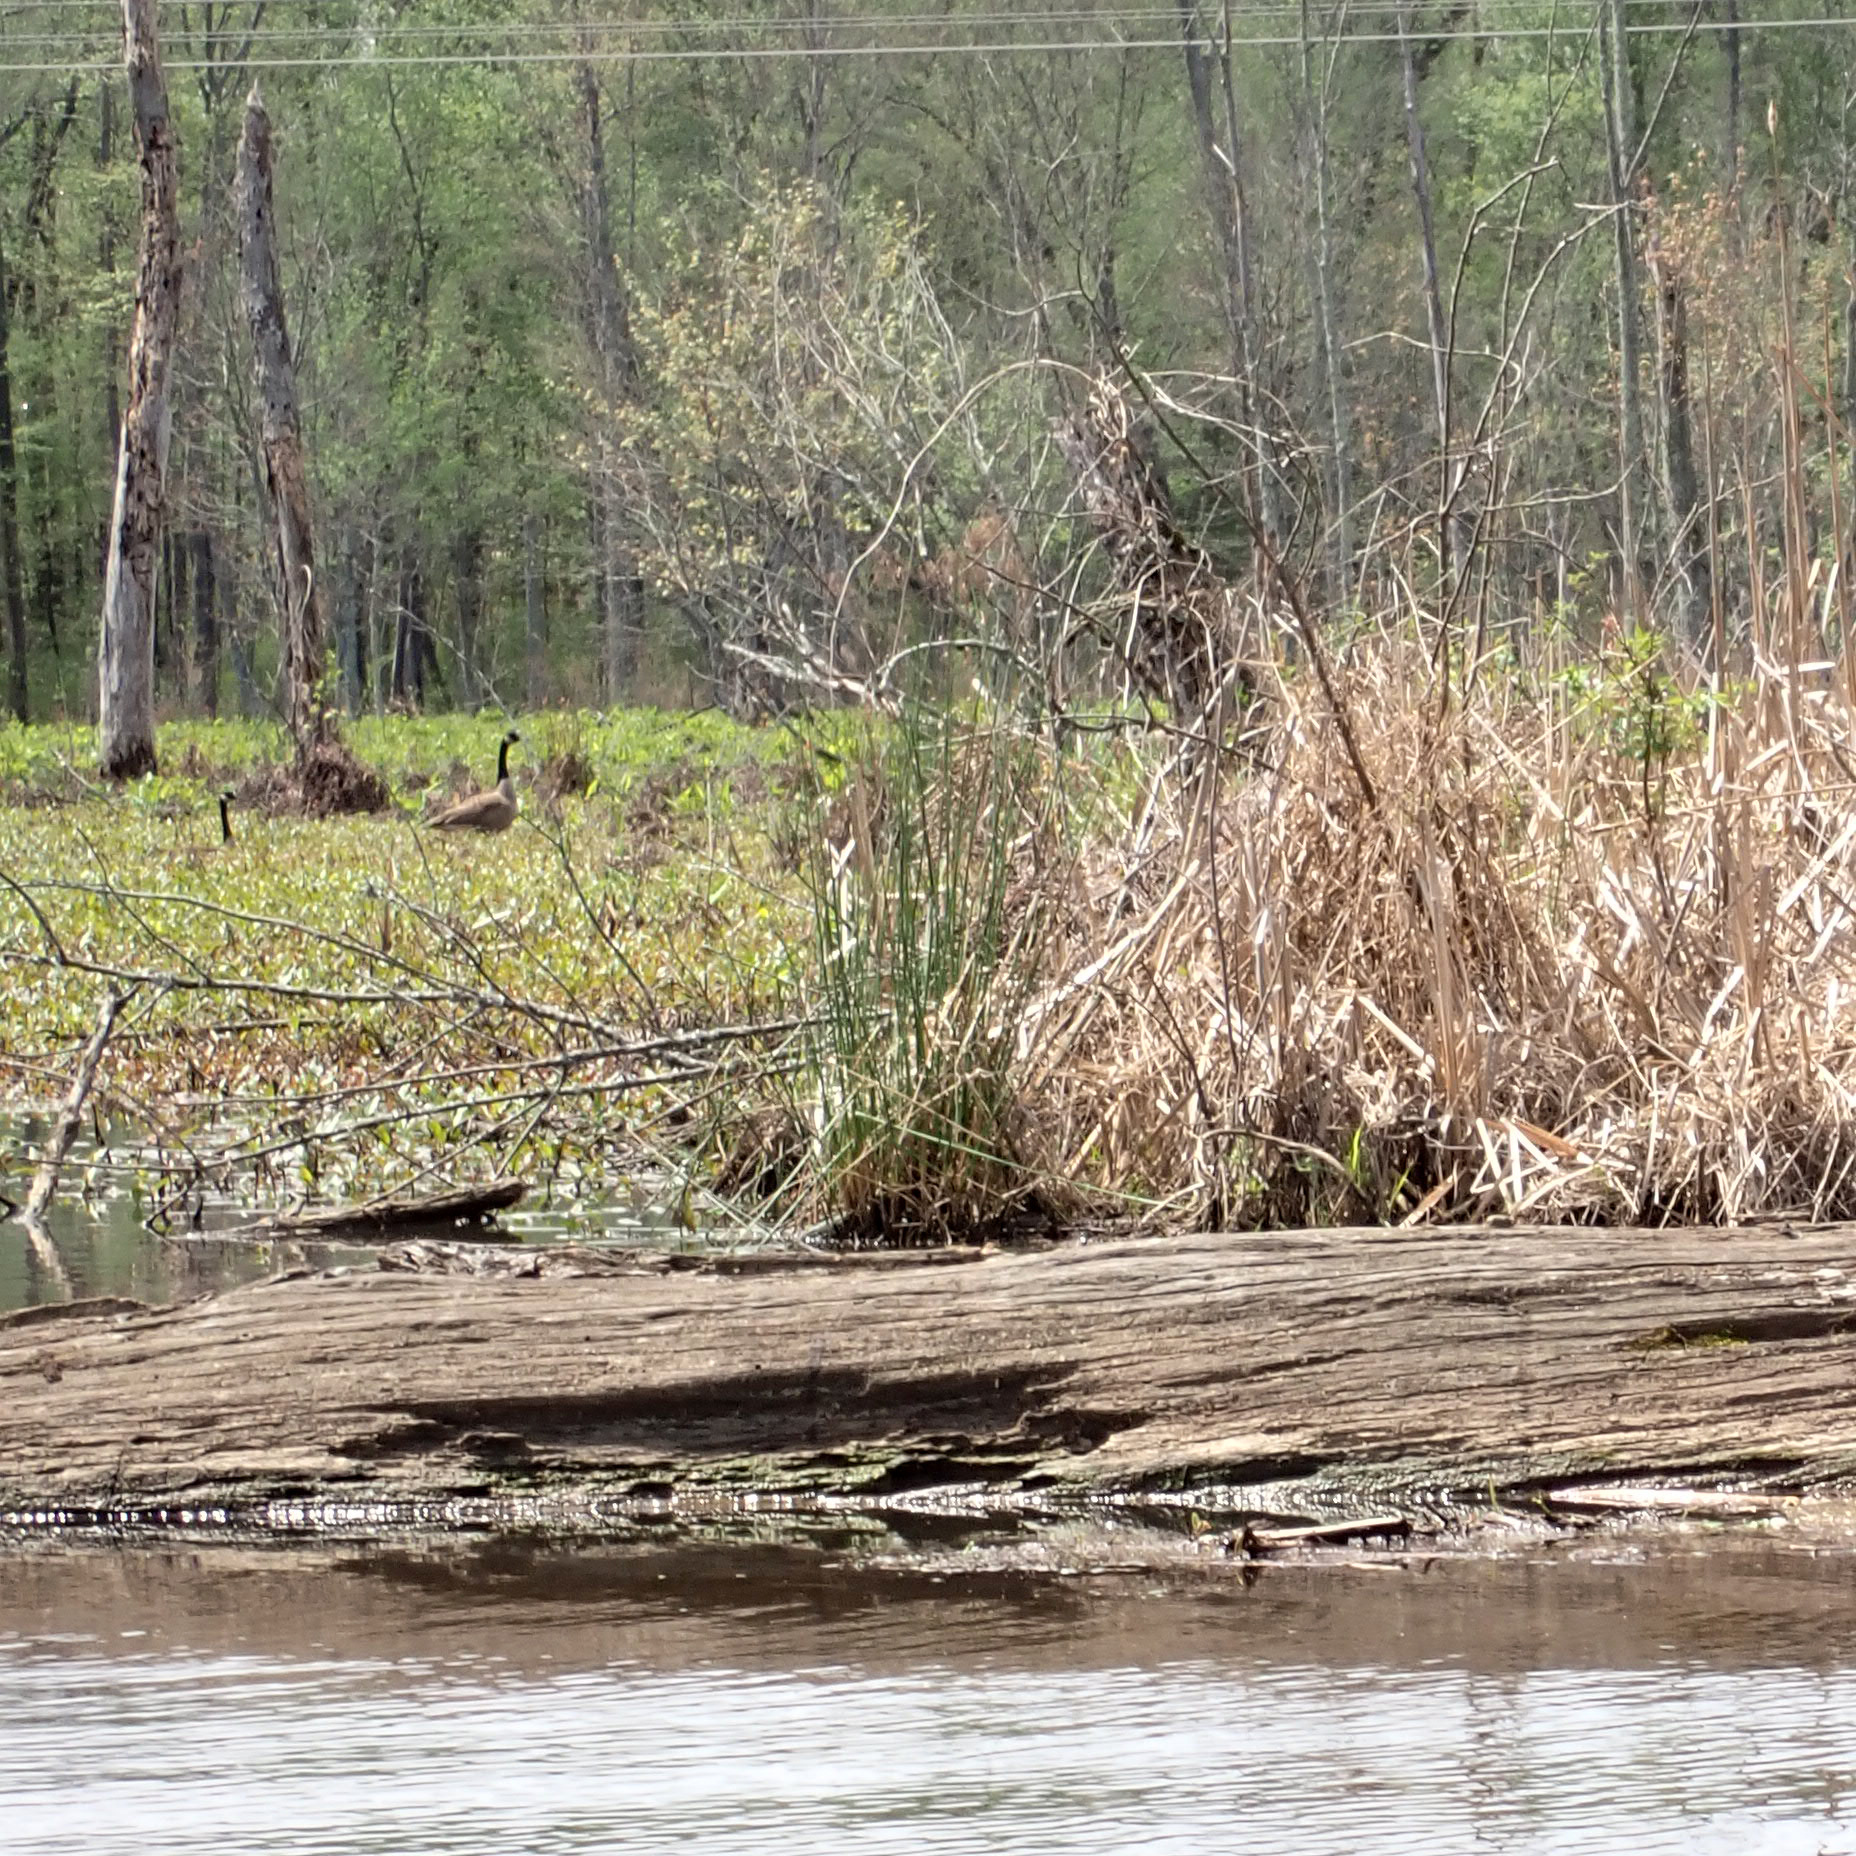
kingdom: Animalia
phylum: Chordata
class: Aves
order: Anseriformes
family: Anatidae
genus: Branta
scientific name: Branta canadensis
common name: Canada goose
